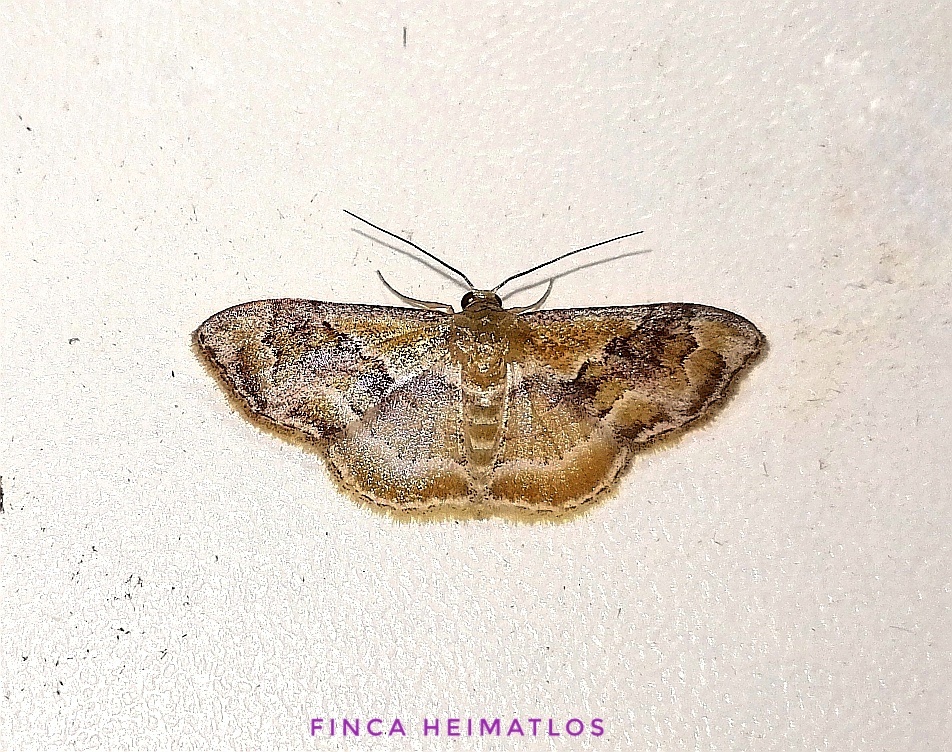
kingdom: Animalia
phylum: Arthropoda
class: Insecta
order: Lepidoptera
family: Geometridae
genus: Leptostales
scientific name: Leptostales adela
